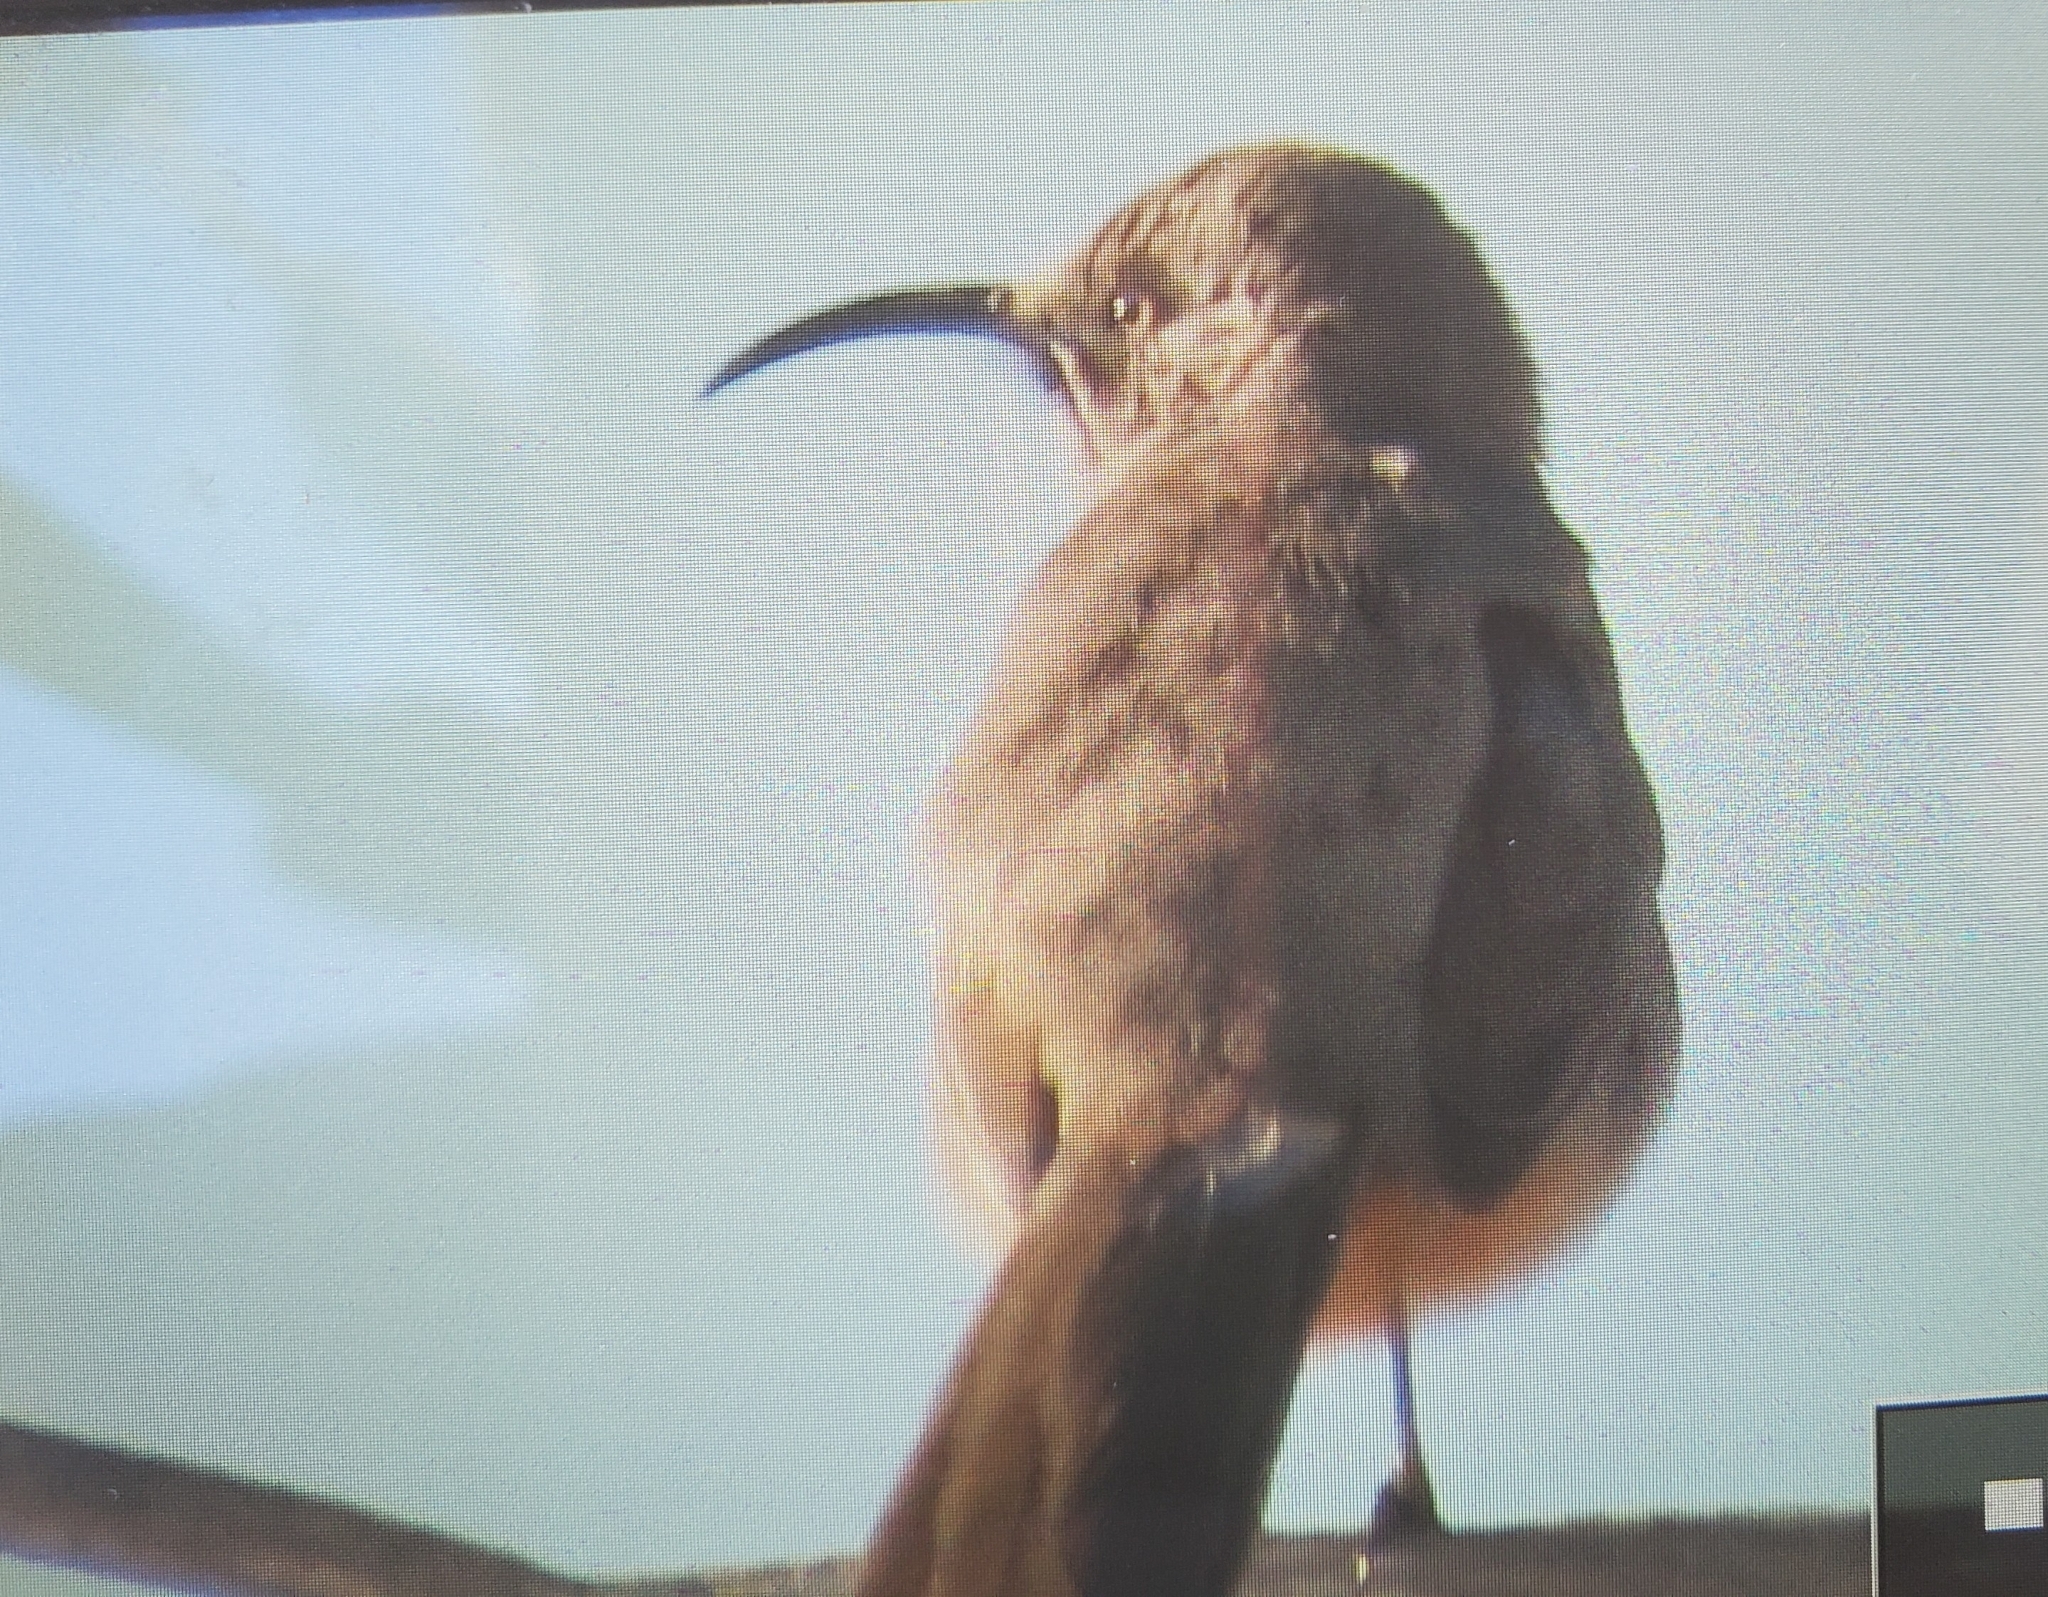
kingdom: Animalia
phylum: Chordata
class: Aves
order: Passeriformes
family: Mimidae
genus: Toxostoma
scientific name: Toxostoma crissale
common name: Crissal thrasher
